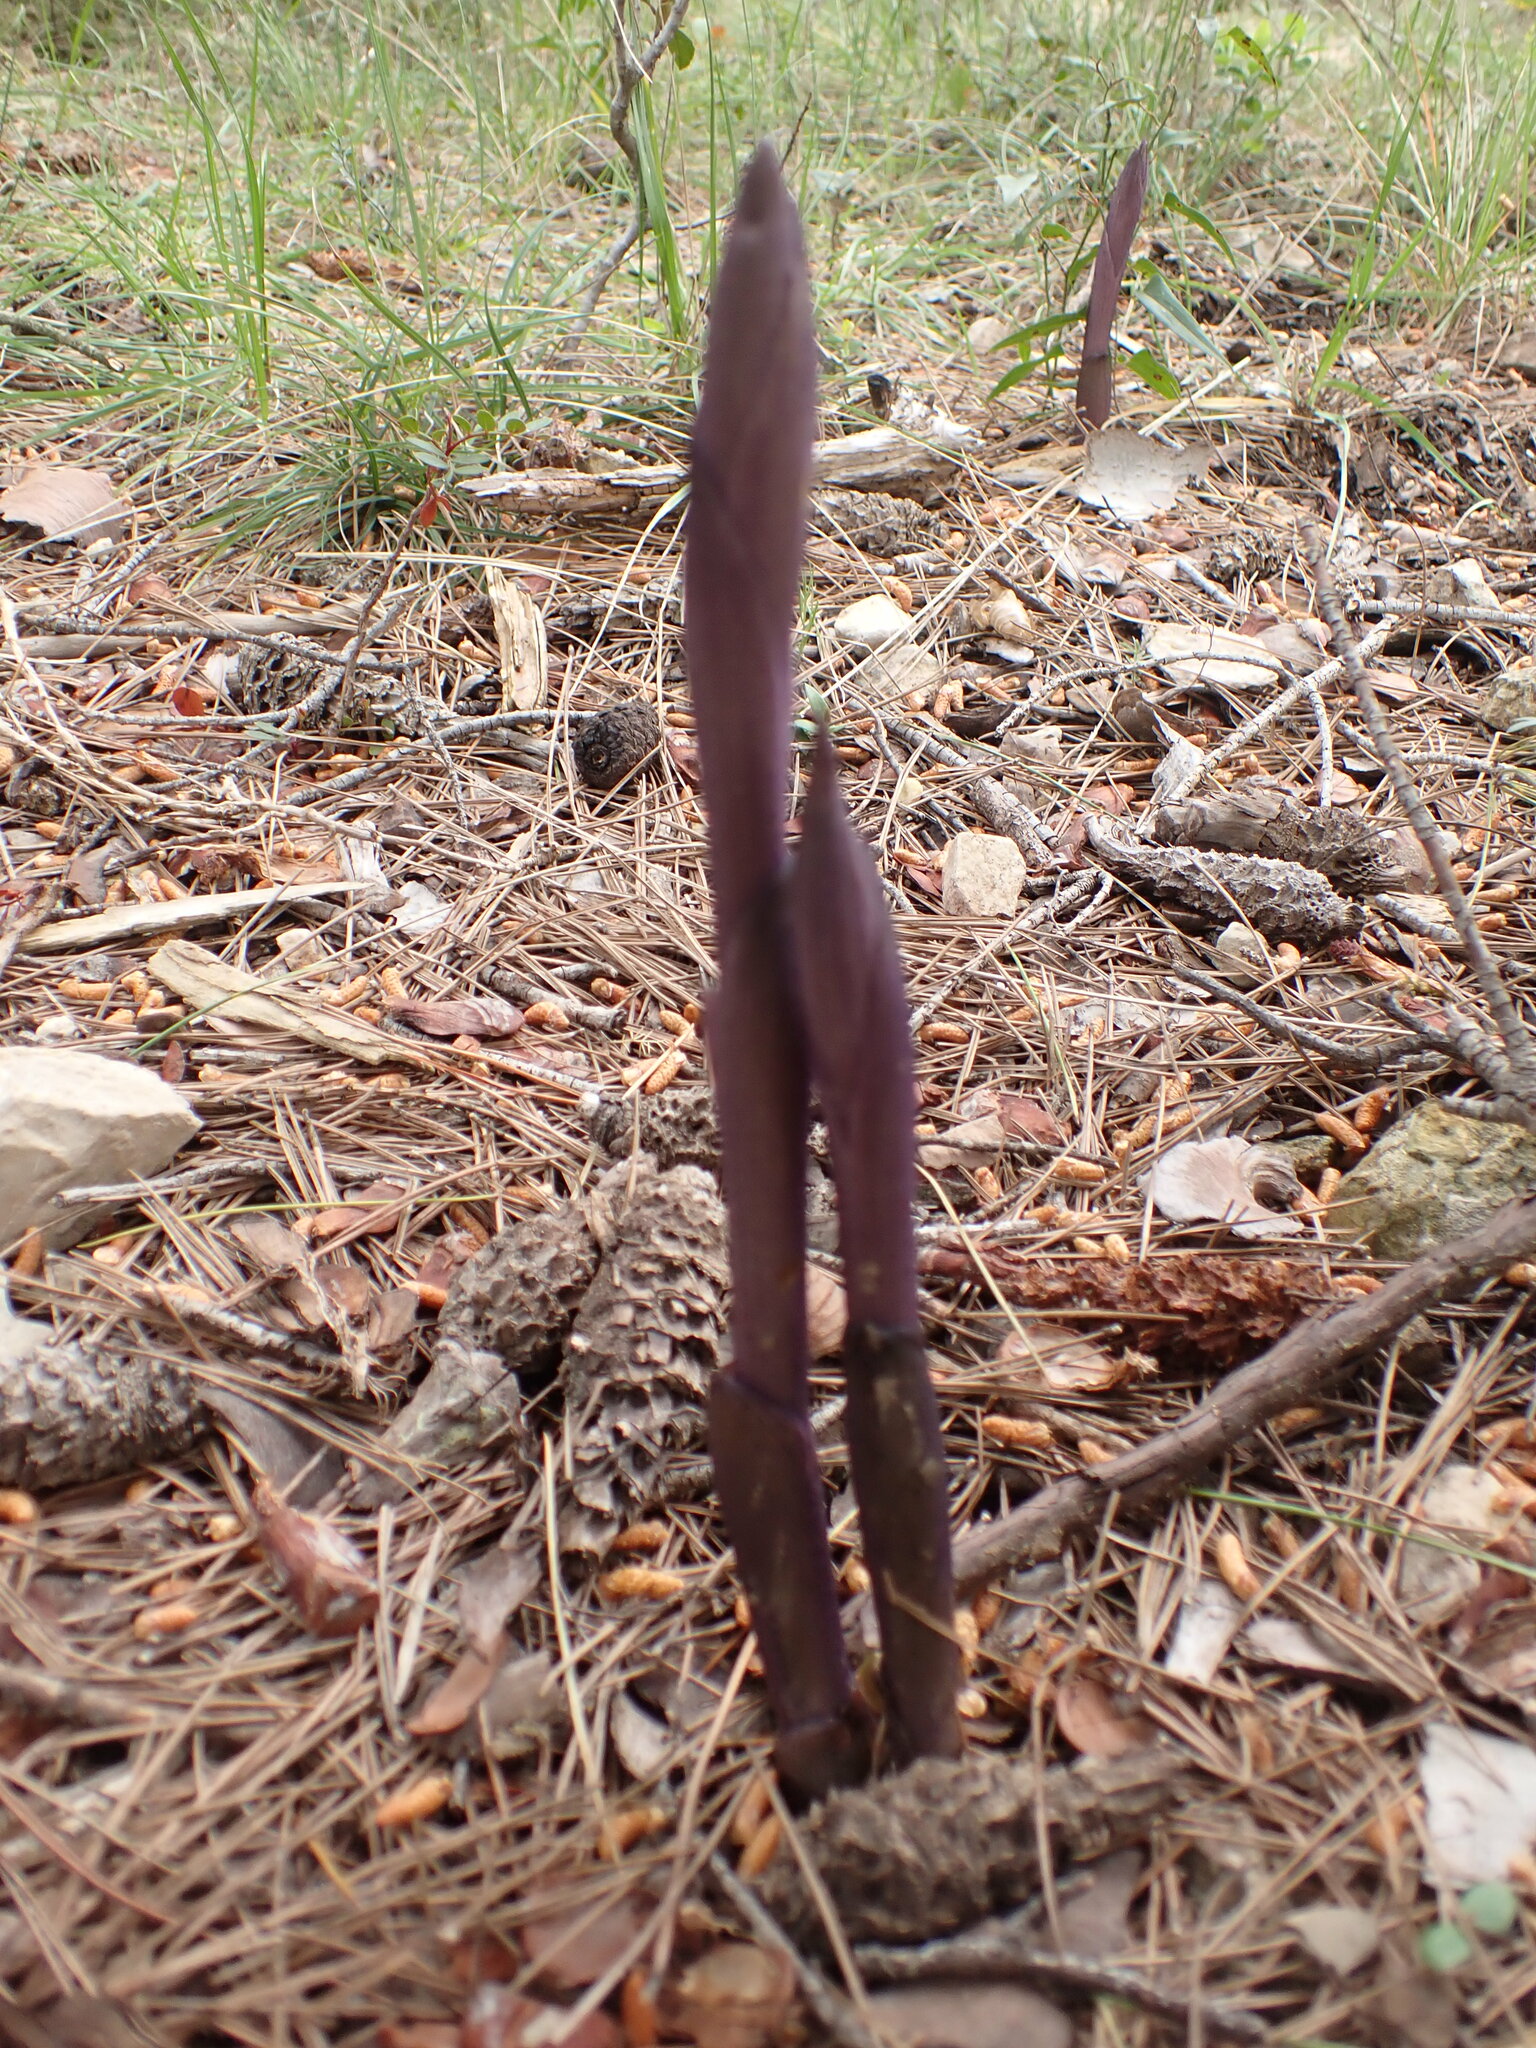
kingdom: Plantae
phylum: Tracheophyta
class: Liliopsida
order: Asparagales
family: Orchidaceae
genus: Limodorum
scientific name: Limodorum abortivum
